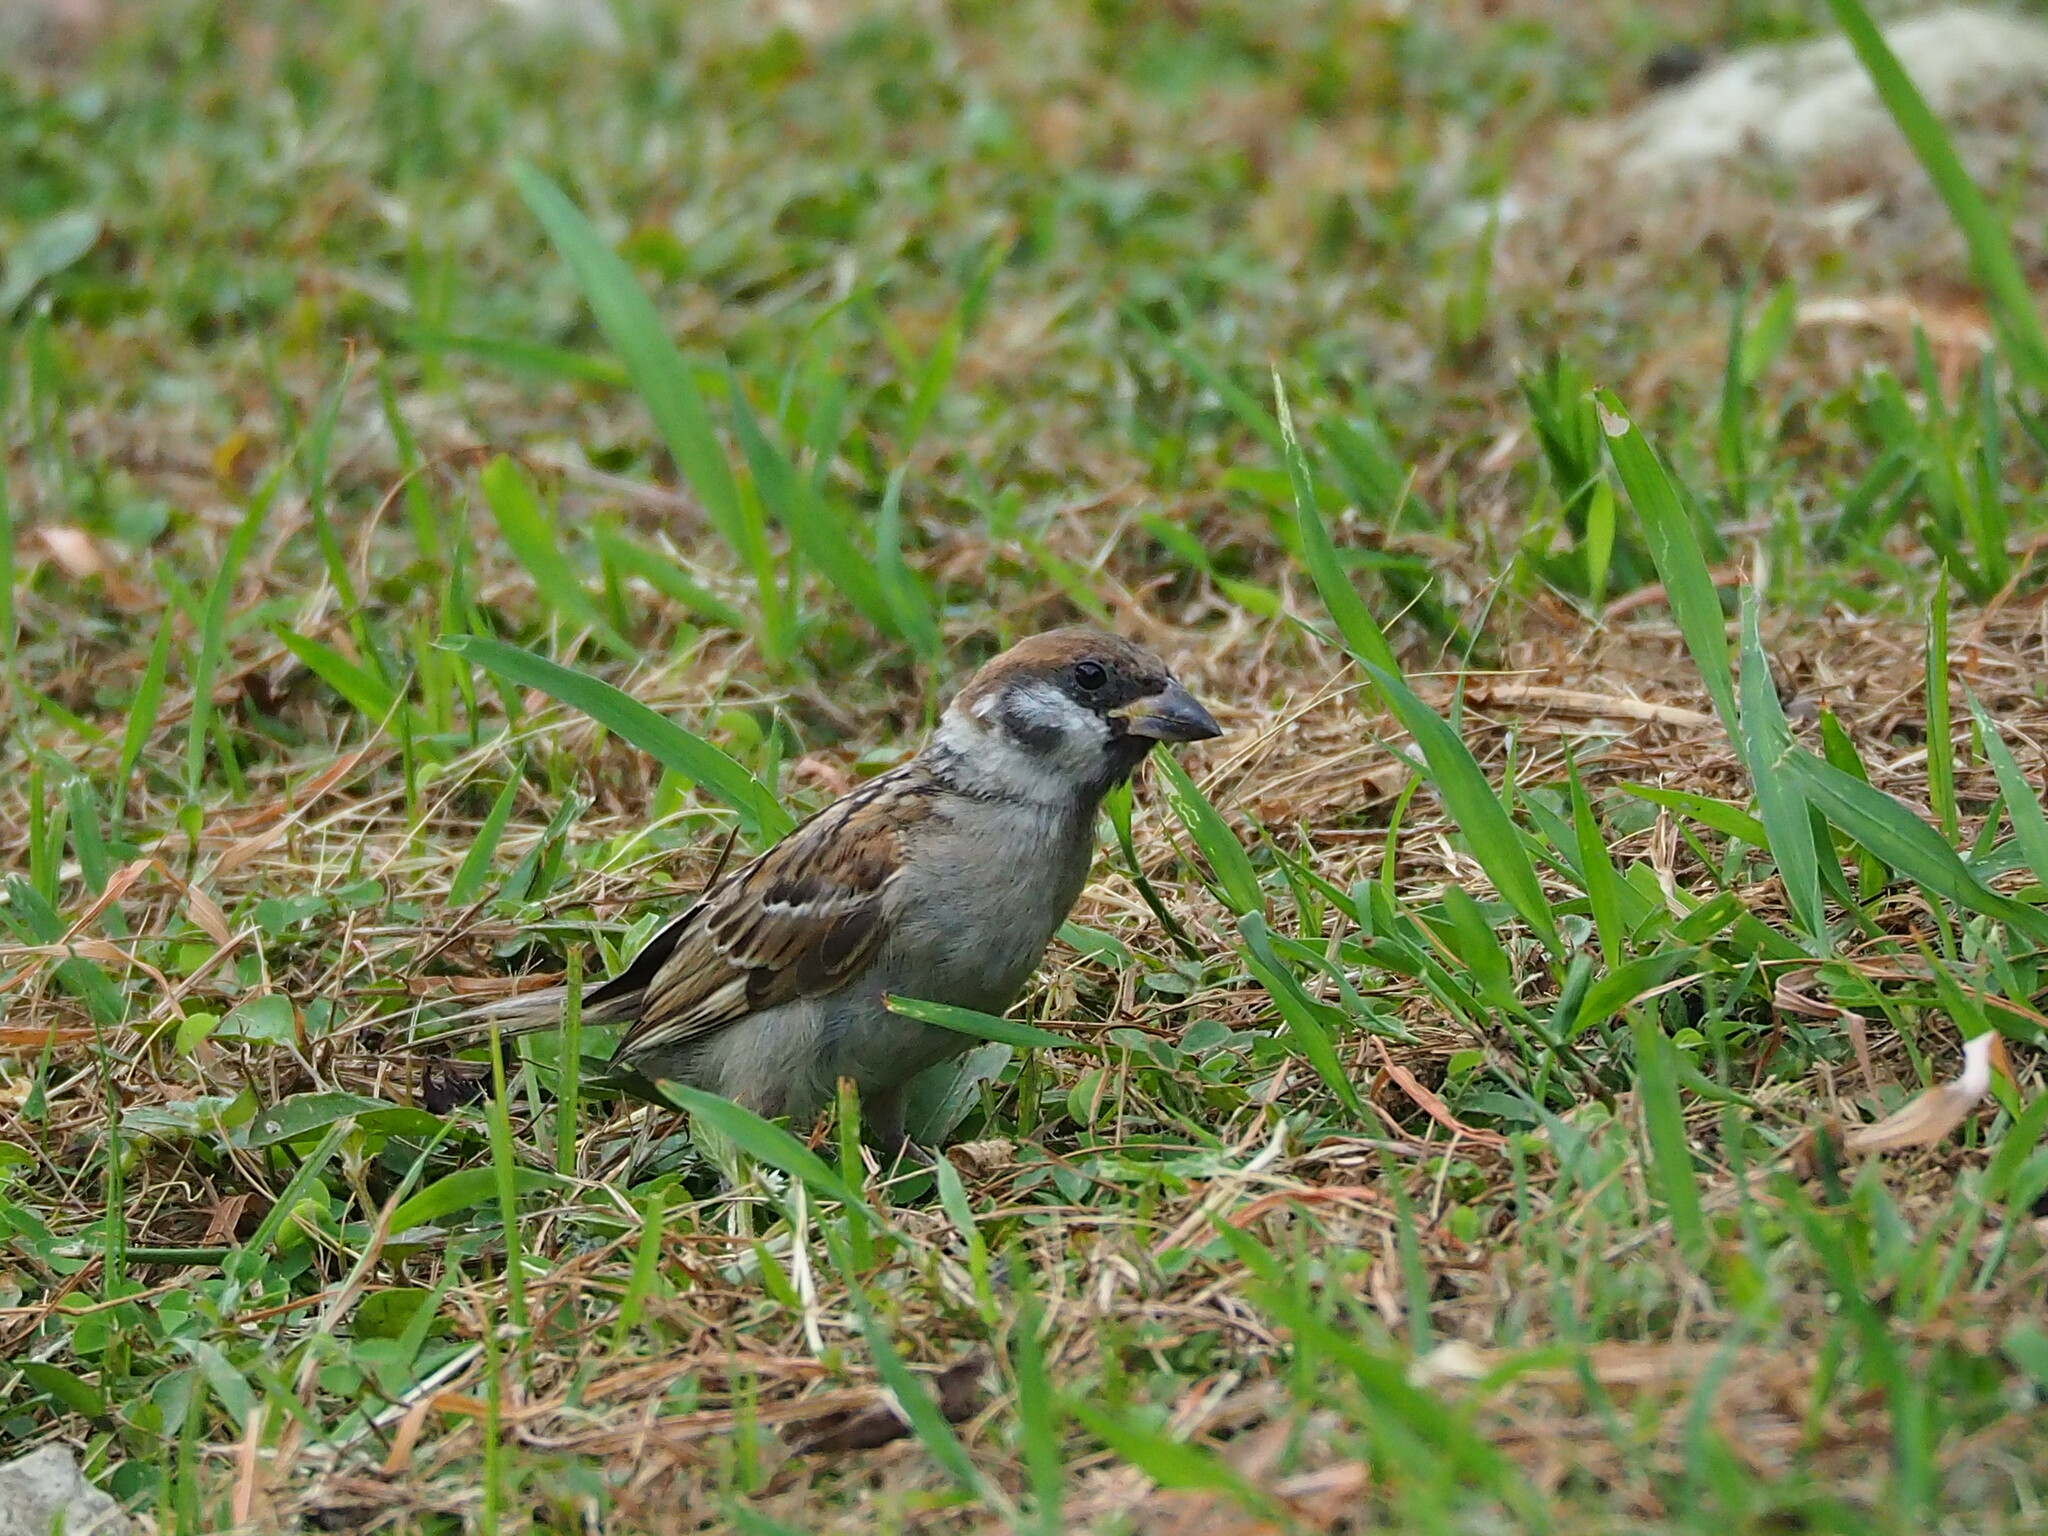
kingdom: Animalia
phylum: Chordata
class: Aves
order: Passeriformes
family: Passeridae
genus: Passer
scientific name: Passer montanus
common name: Eurasian tree sparrow
